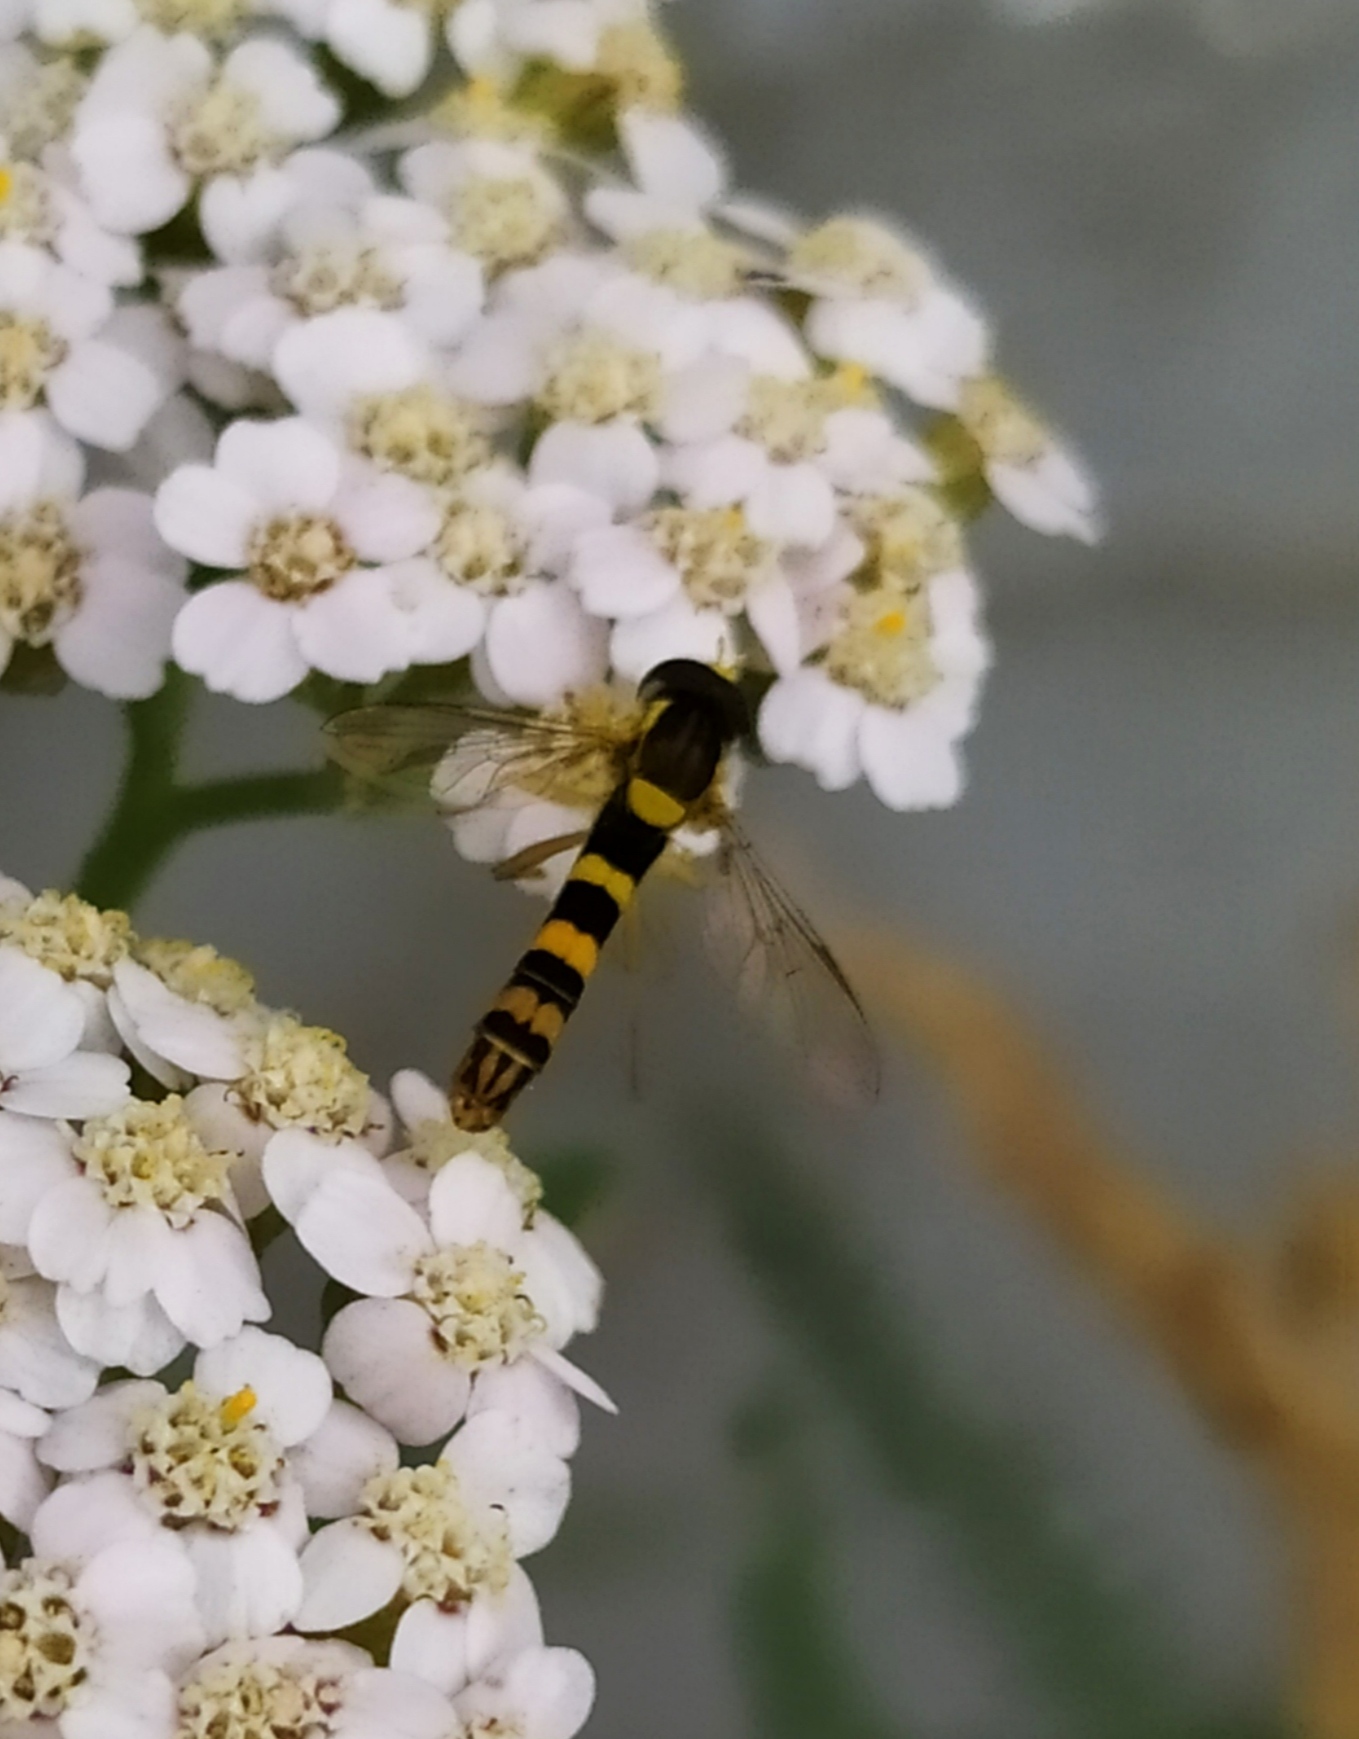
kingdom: Animalia
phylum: Arthropoda
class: Insecta
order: Diptera
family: Syrphidae
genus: Sphaerophoria
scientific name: Sphaerophoria scripta
